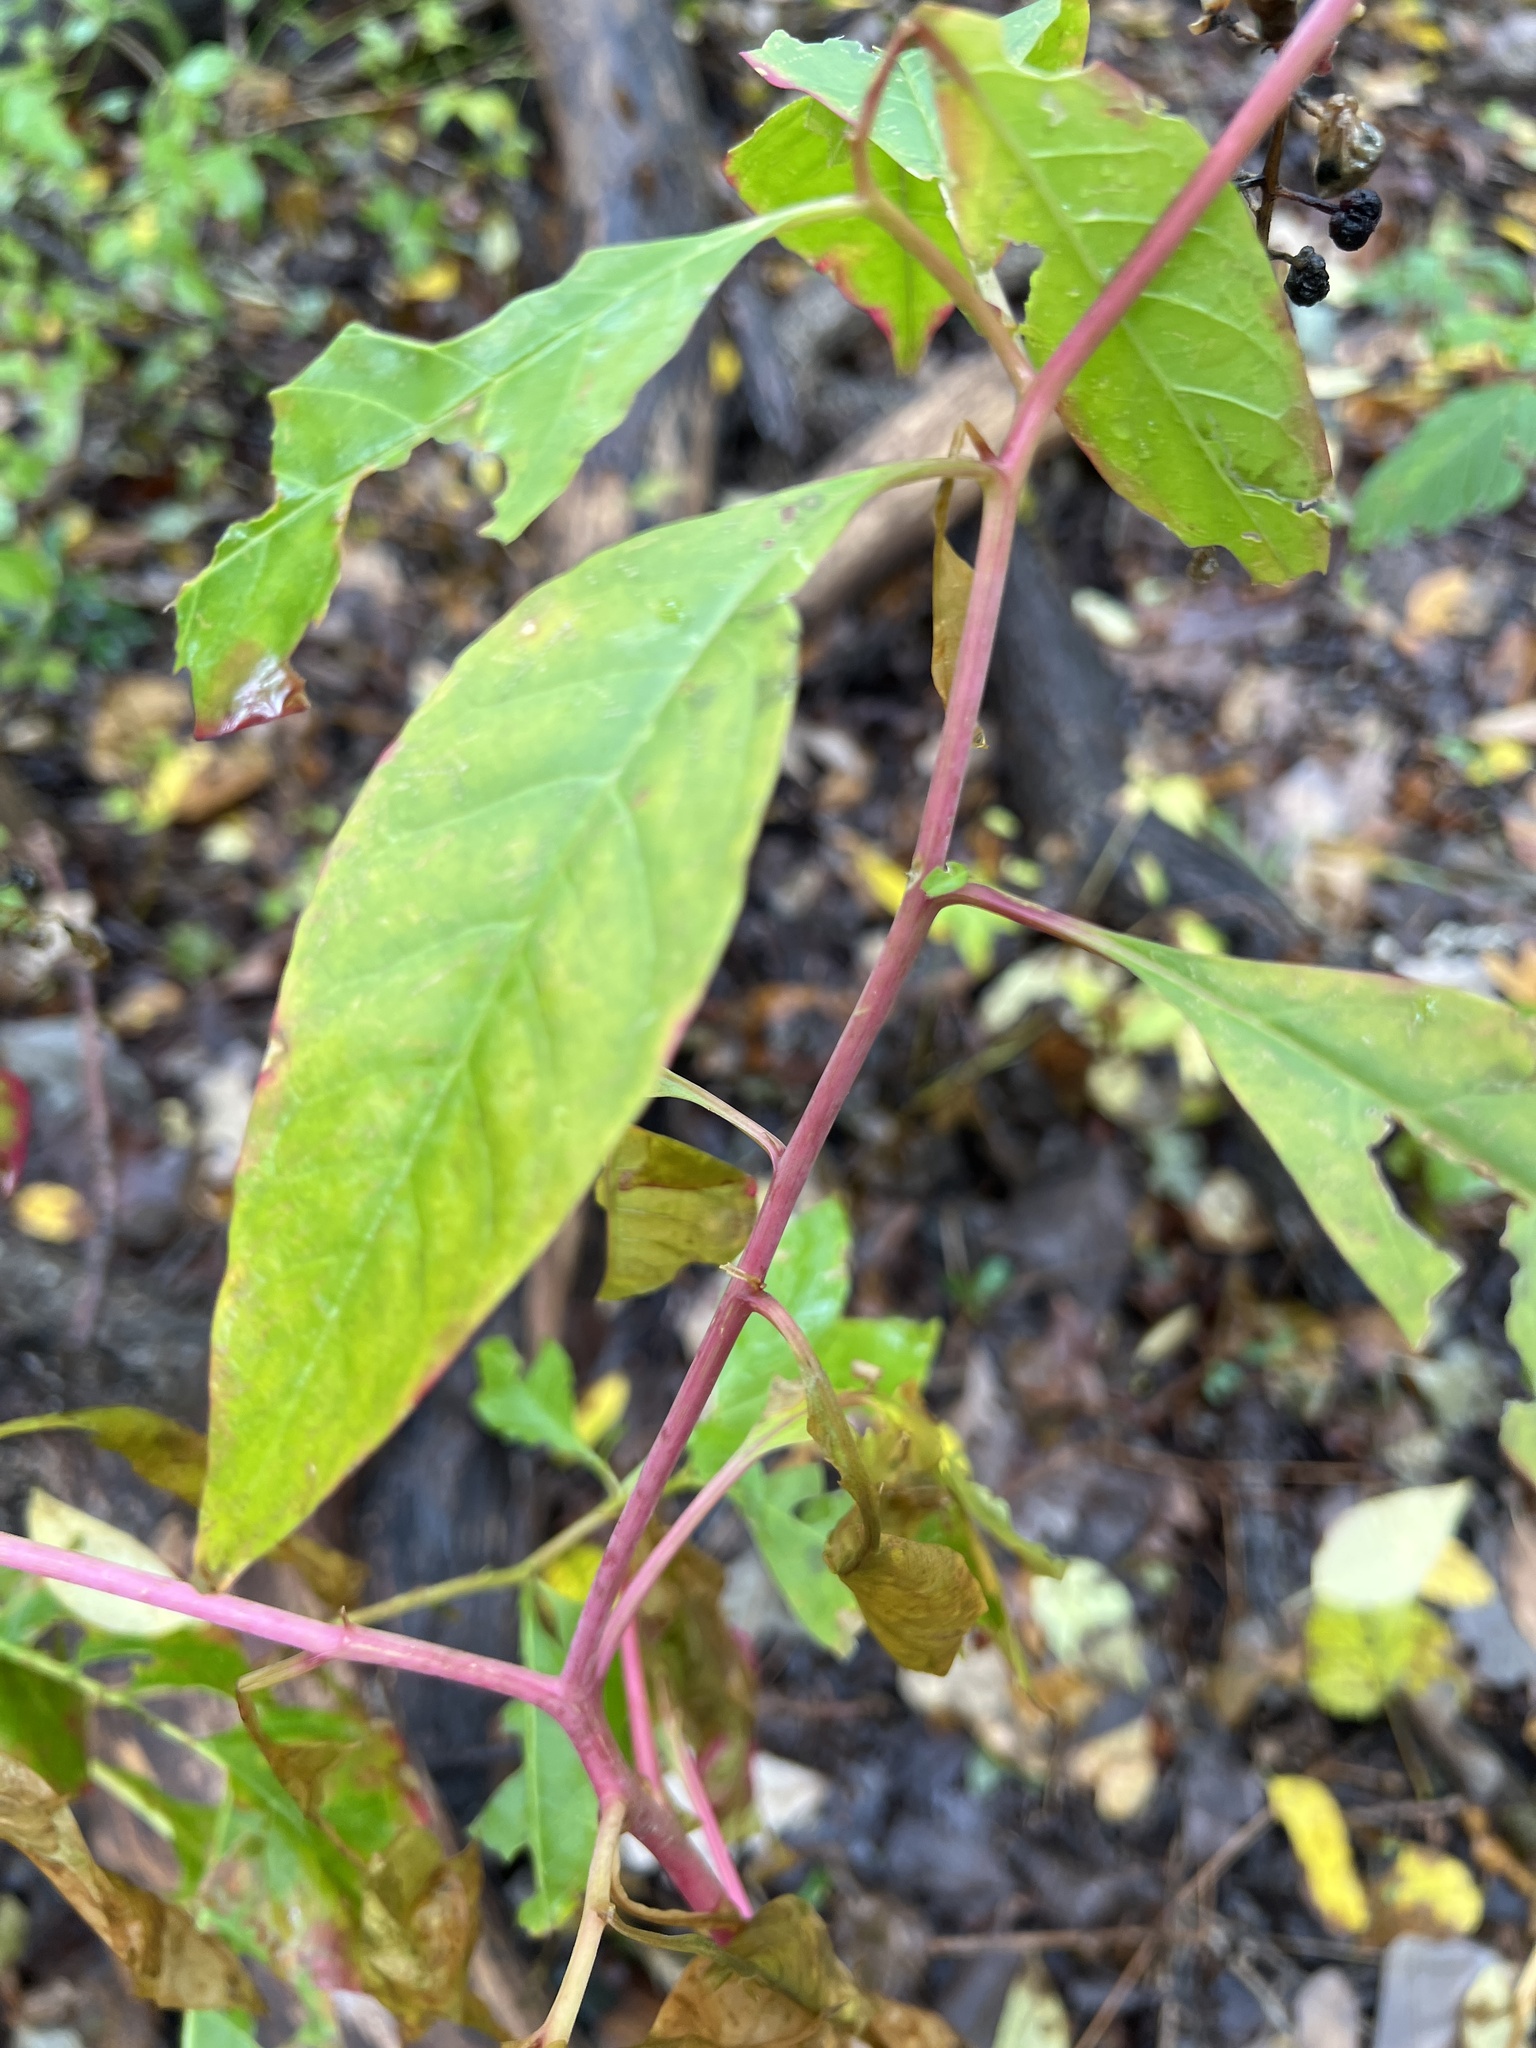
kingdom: Plantae
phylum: Tracheophyta
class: Magnoliopsida
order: Caryophyllales
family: Phytolaccaceae
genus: Phytolacca
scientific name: Phytolacca americana
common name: American pokeweed
